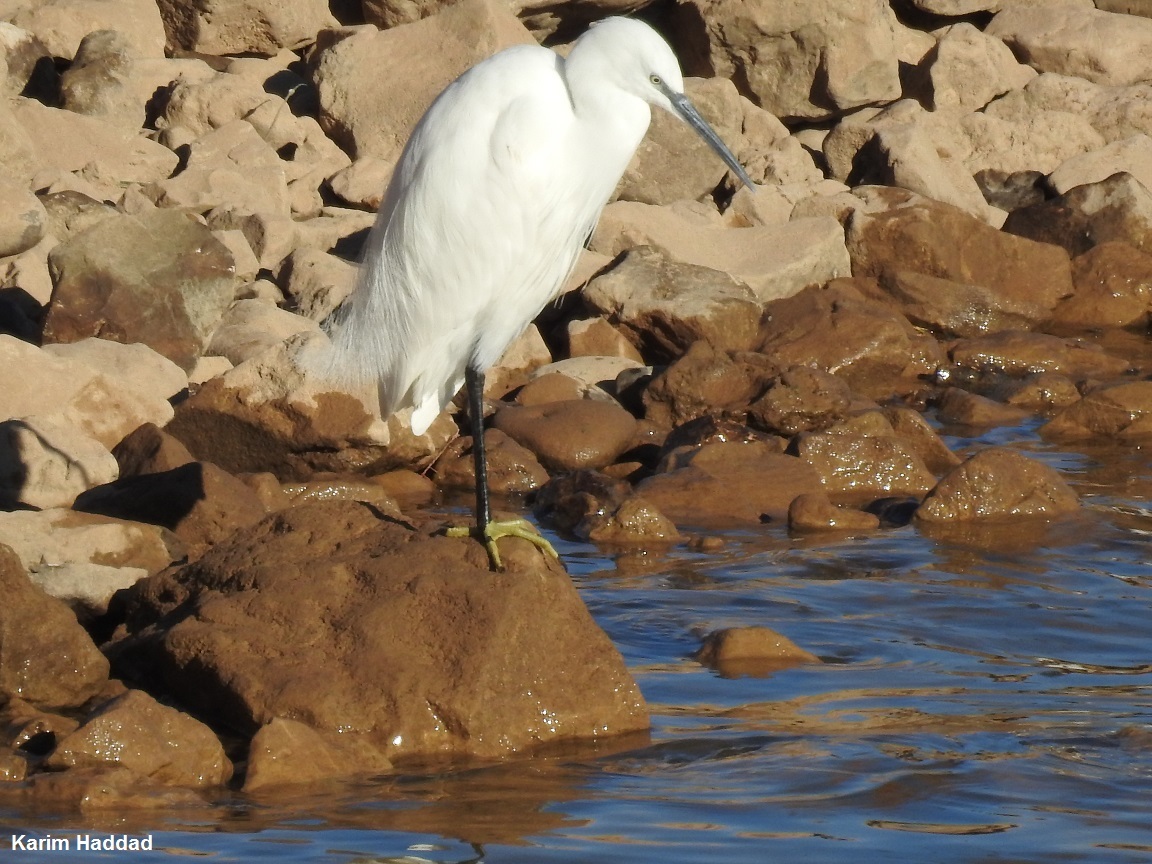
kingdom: Animalia
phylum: Chordata
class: Aves
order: Pelecaniformes
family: Ardeidae
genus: Egretta
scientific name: Egretta garzetta
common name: Little egret
